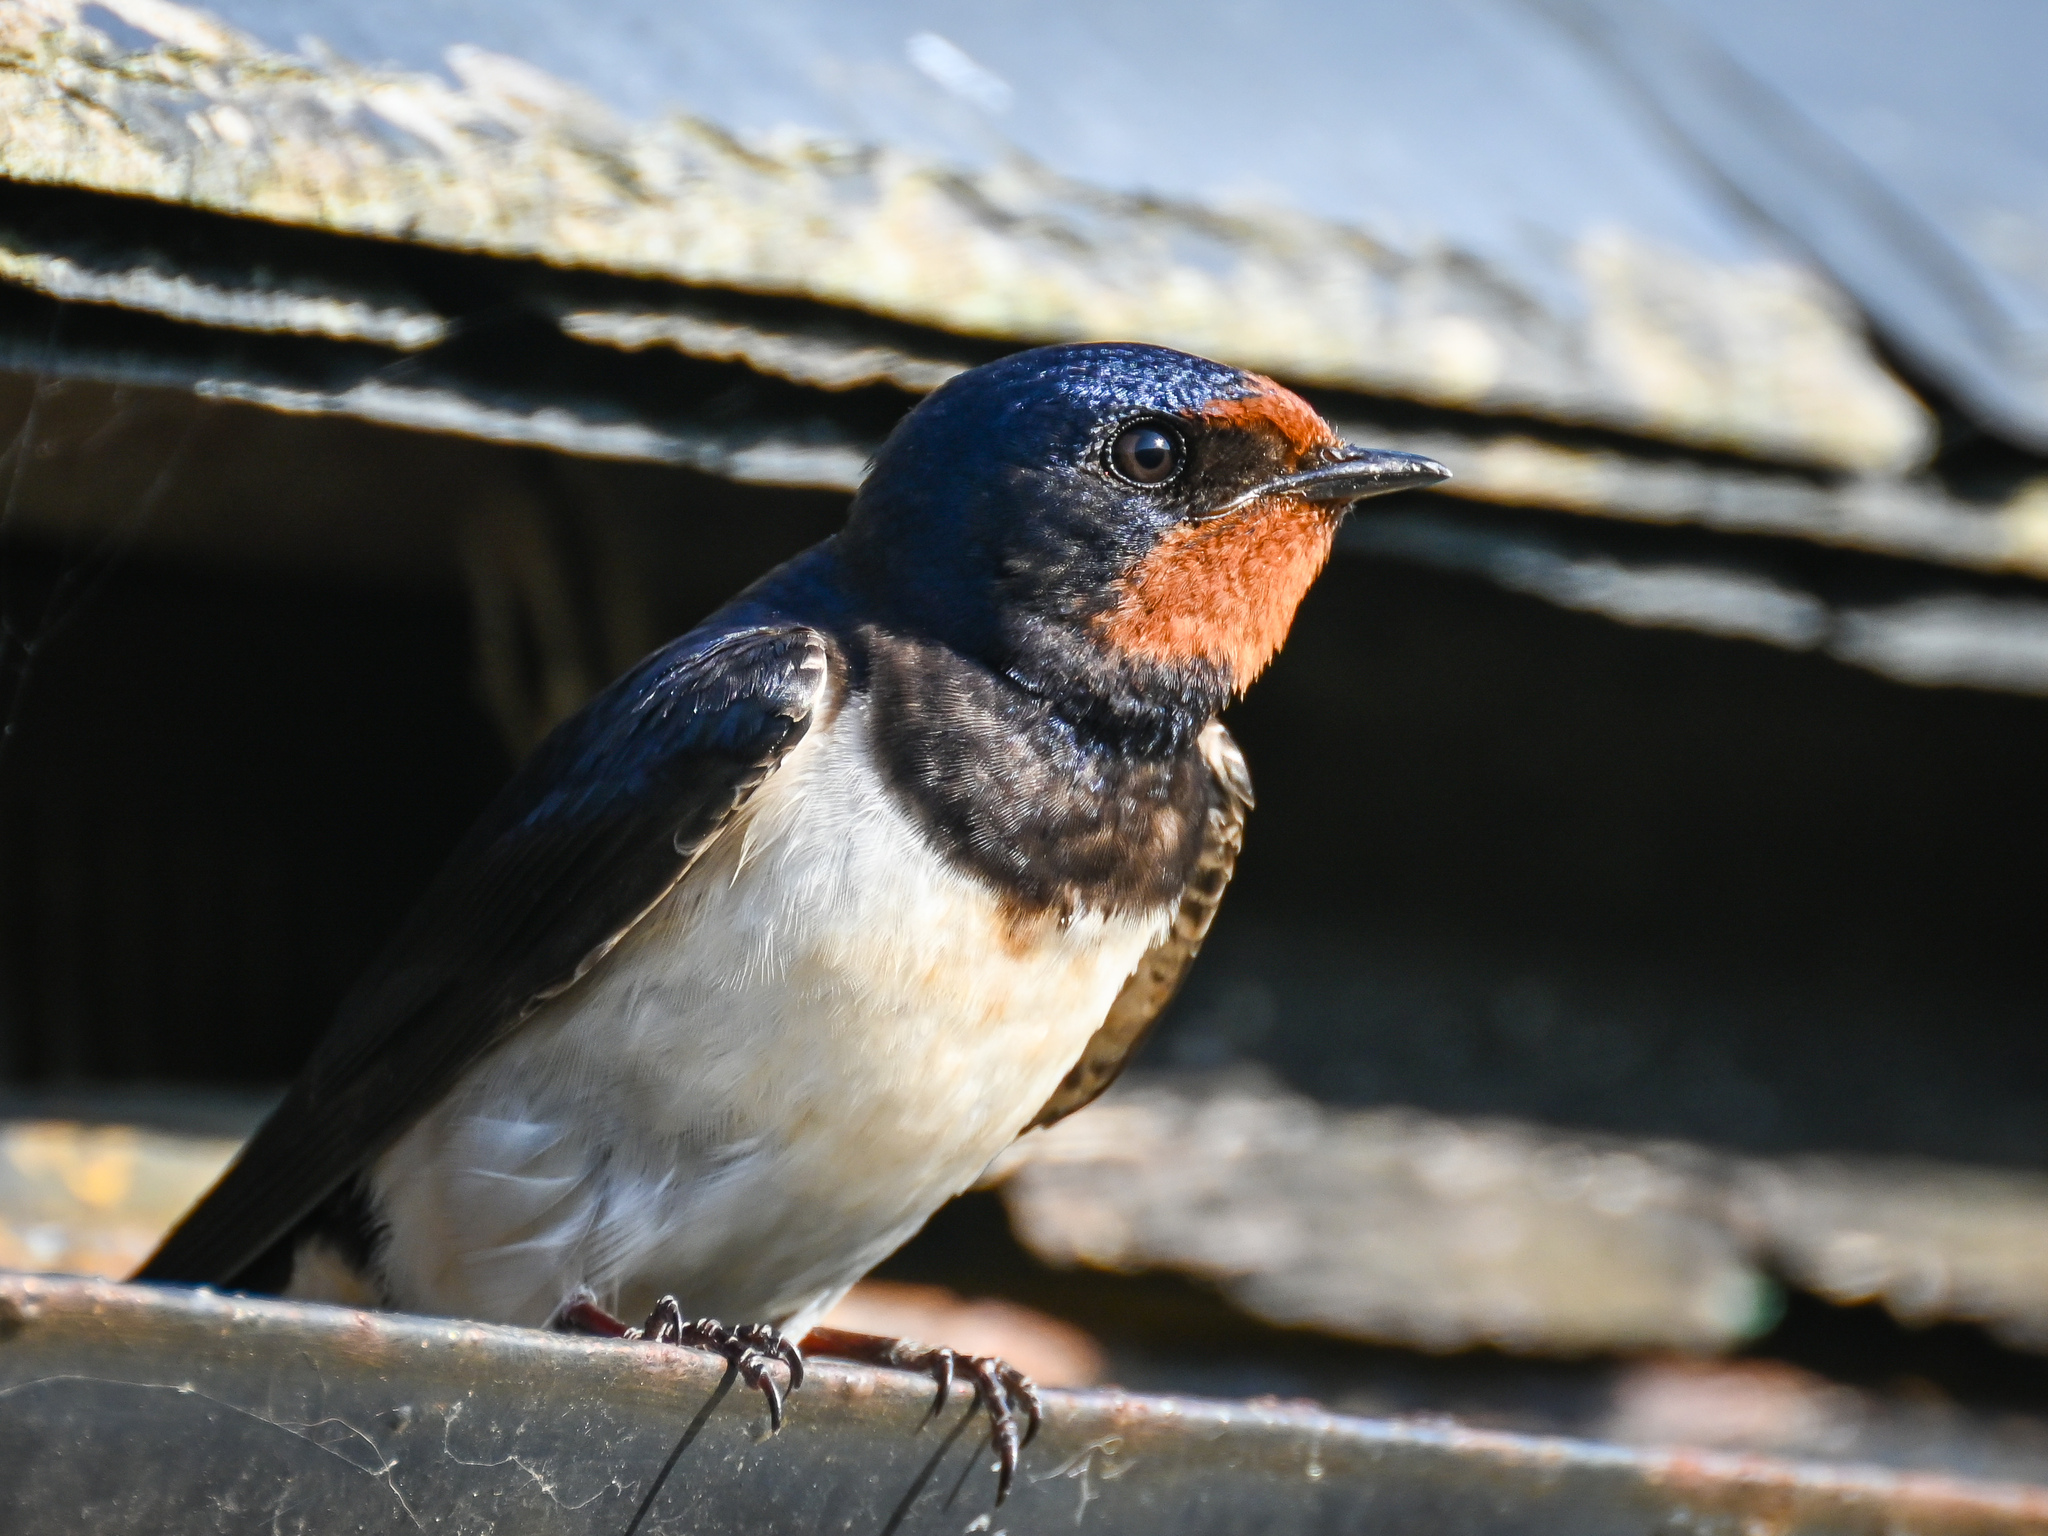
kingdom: Animalia
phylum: Chordata
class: Aves
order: Passeriformes
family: Hirundinidae
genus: Hirundo
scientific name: Hirundo rustica
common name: Barn swallow
